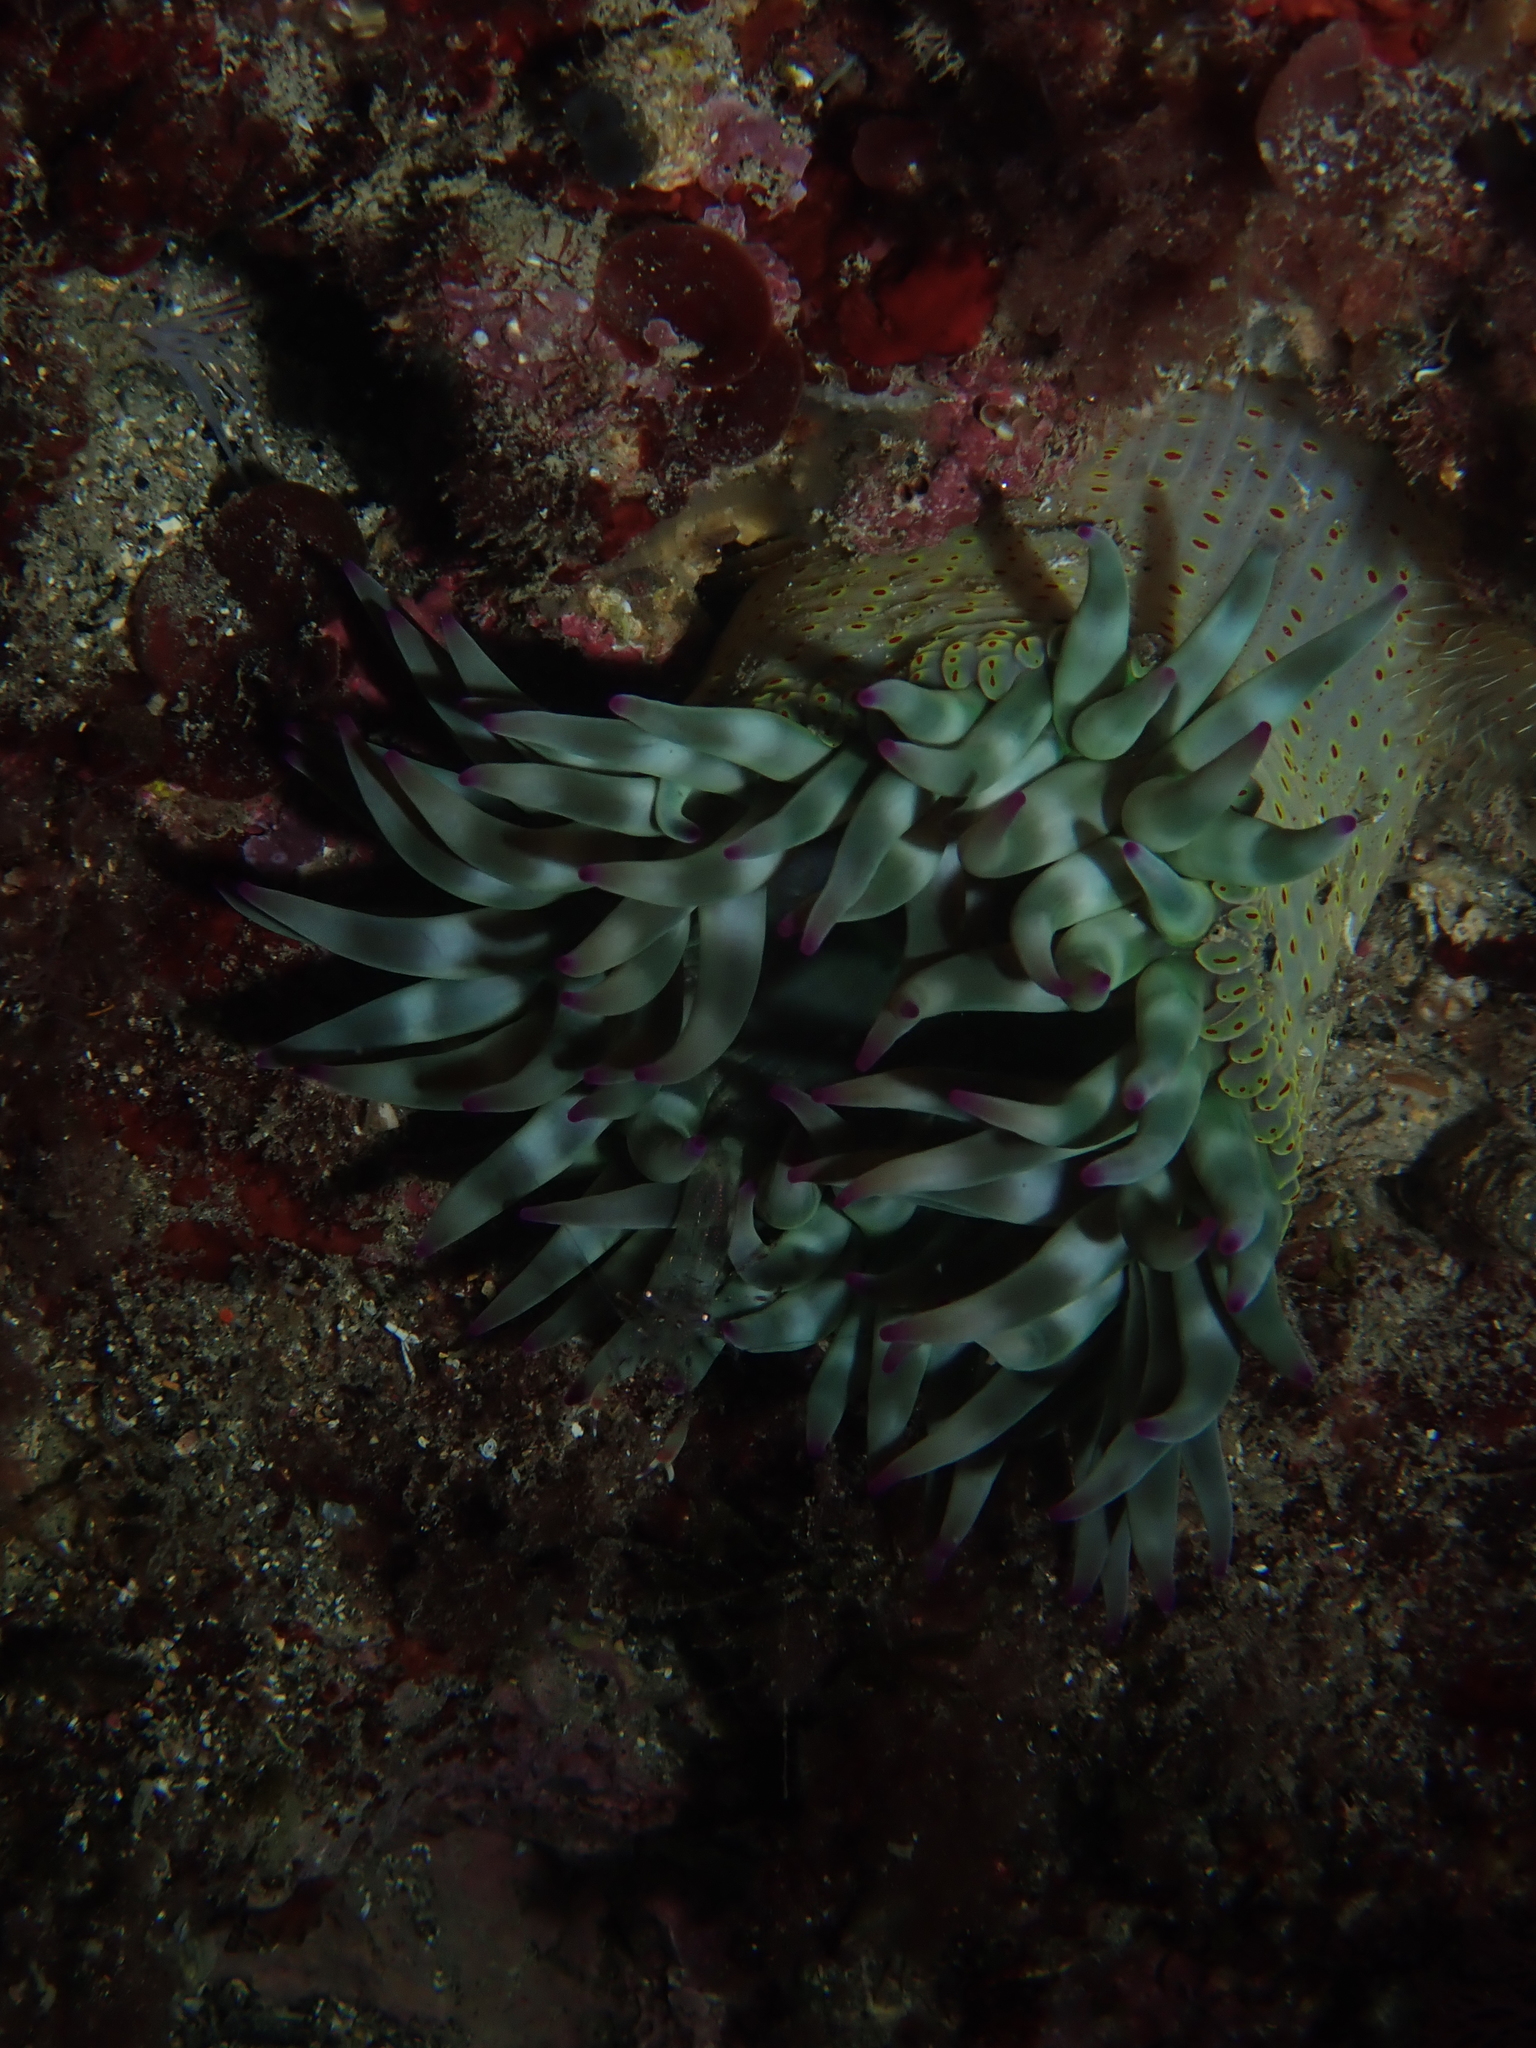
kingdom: Animalia
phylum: Cnidaria
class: Anthozoa
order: Actiniaria
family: Actiniidae
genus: Cribrinopsis
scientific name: Cribrinopsis crassa
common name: Fat anemone
